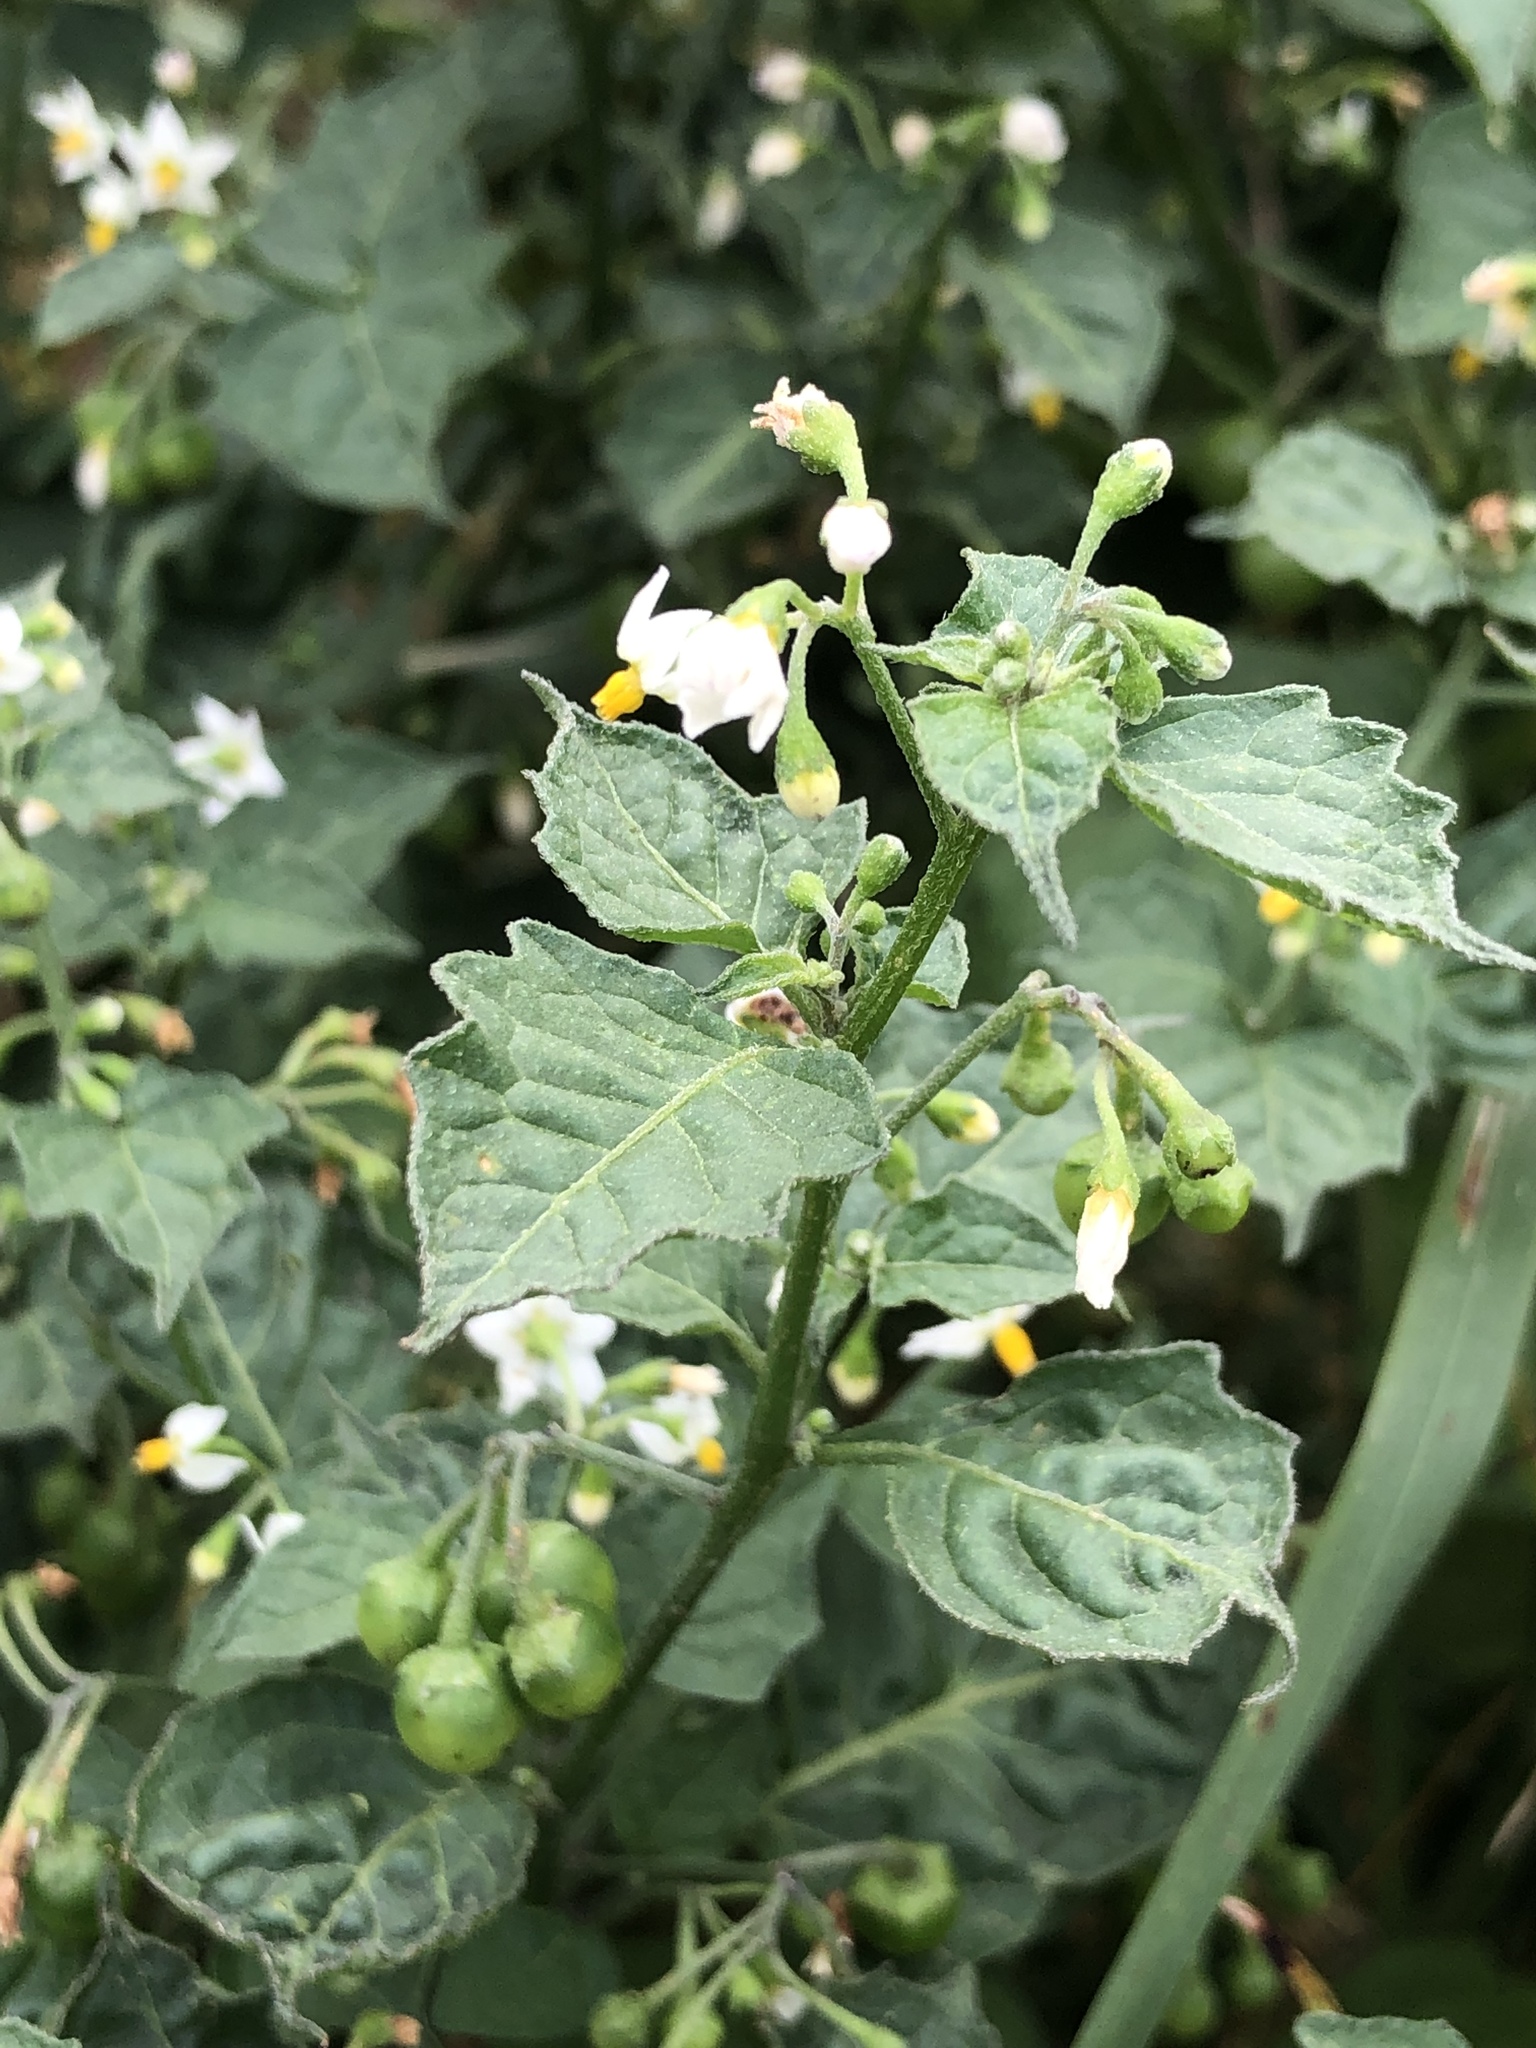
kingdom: Plantae
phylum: Tracheophyta
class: Magnoliopsida
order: Solanales
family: Solanaceae
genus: Solanum
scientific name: Solanum nigrum
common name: Black nightshade
